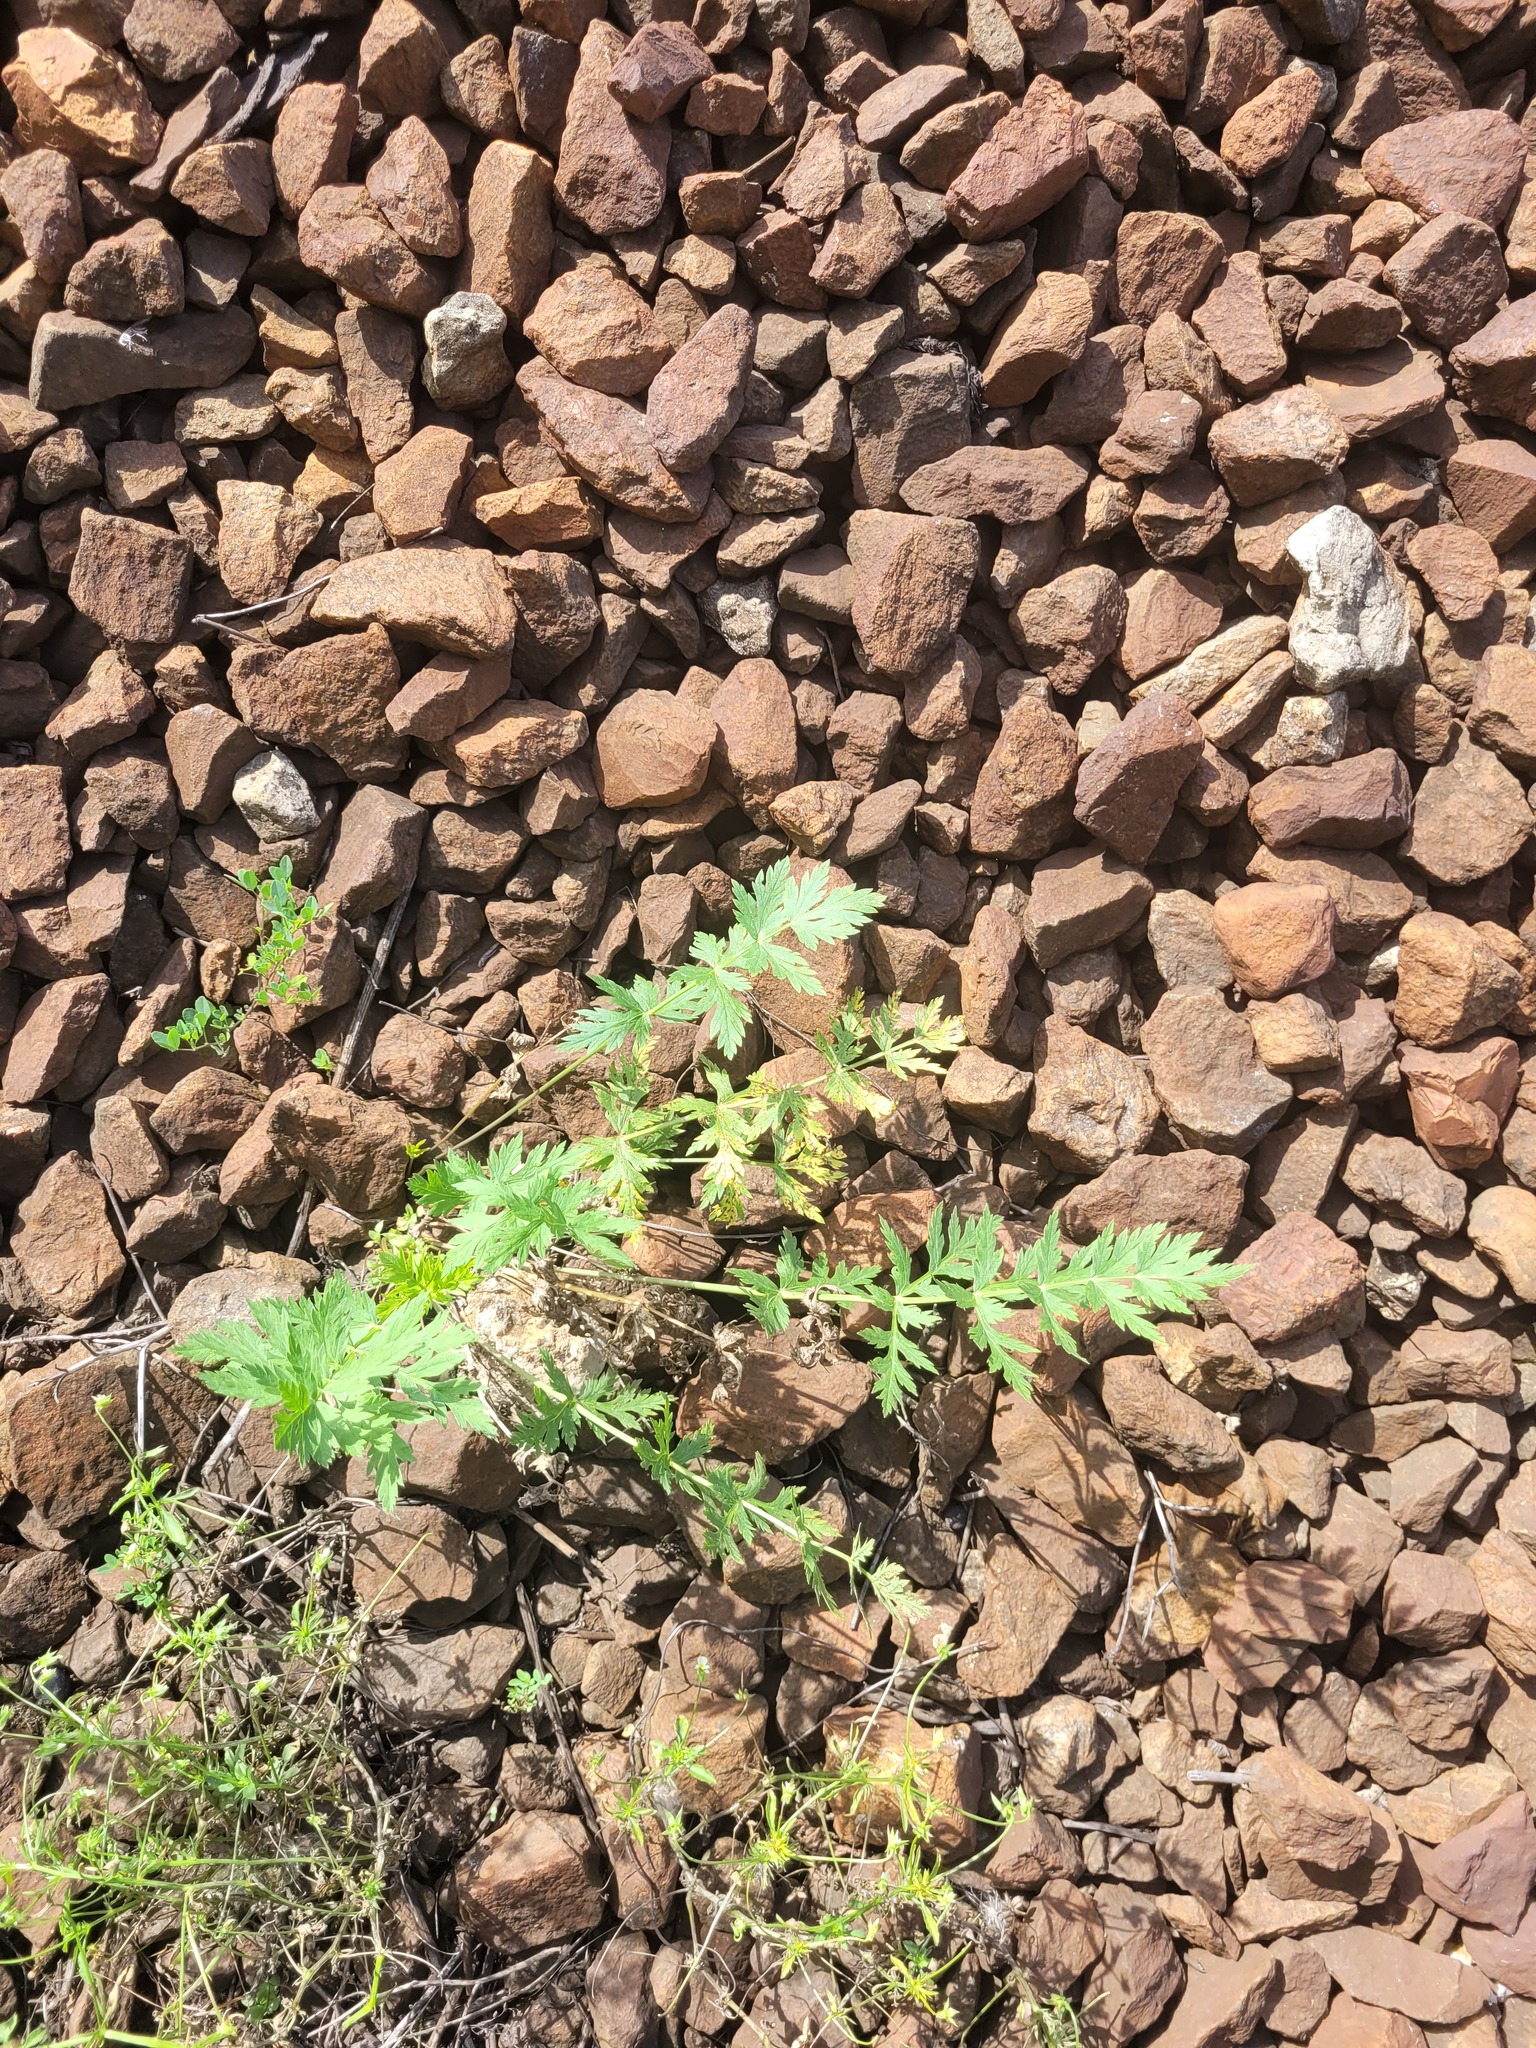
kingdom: Plantae
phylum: Tracheophyta
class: Magnoliopsida
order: Apiales
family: Apiaceae
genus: Seseli
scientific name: Seseli libanotis
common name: Mooncarrot
